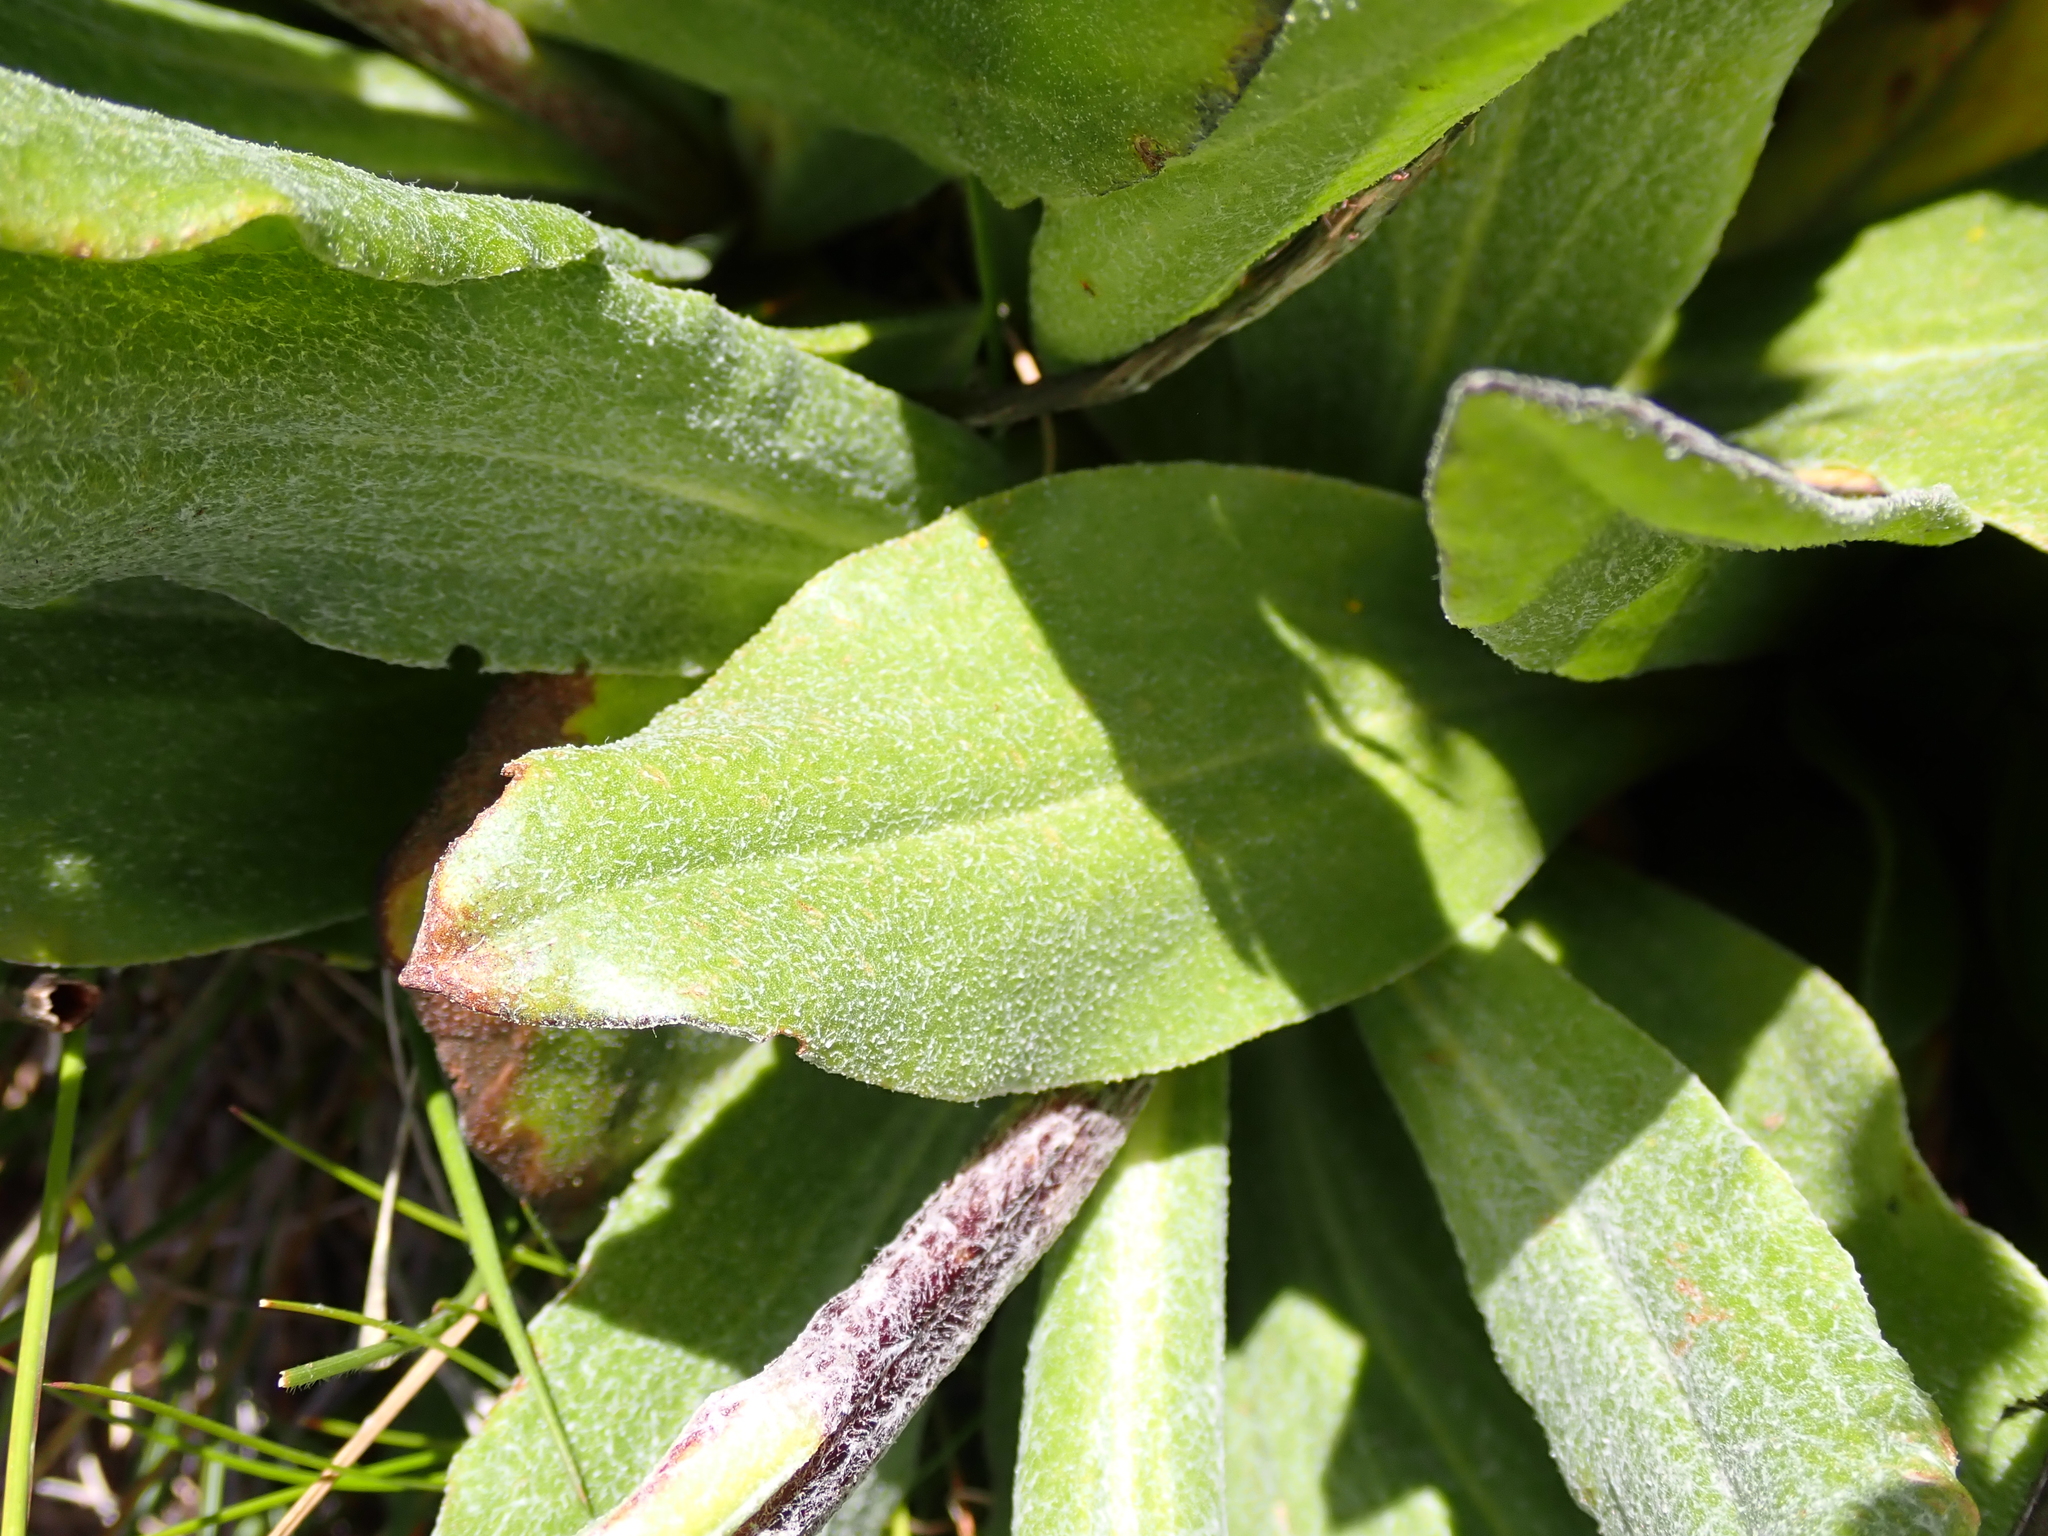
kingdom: Plantae
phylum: Tracheophyta
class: Magnoliopsida
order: Asterales
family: Asteraceae
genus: Podolepis
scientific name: Podolepis laciniata
